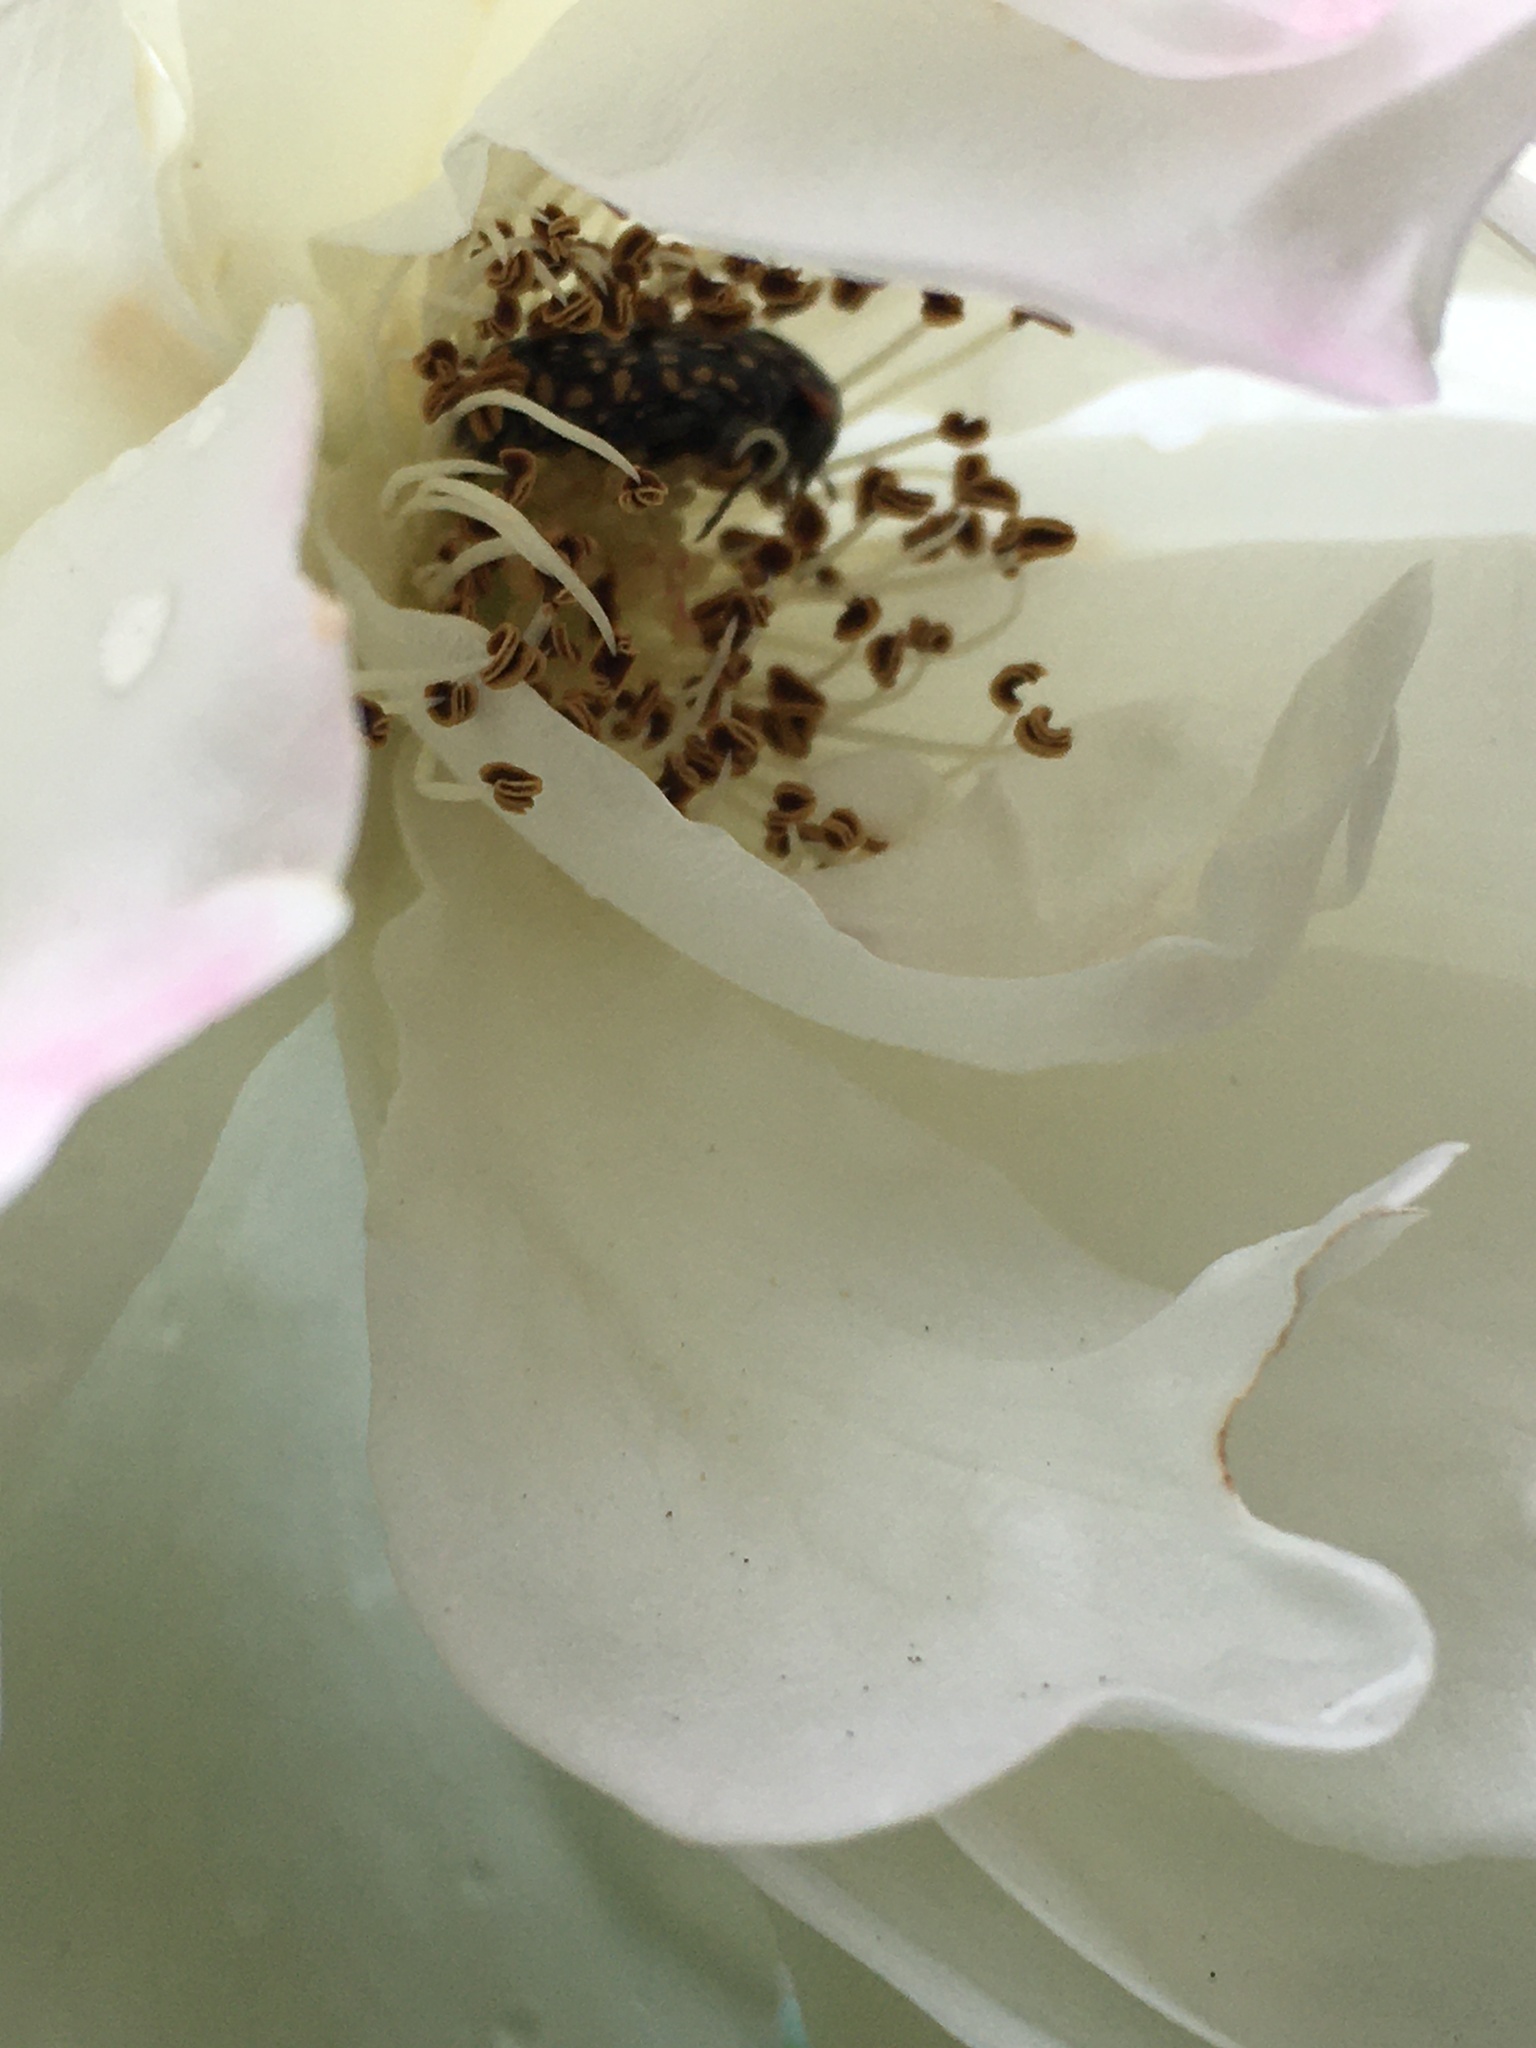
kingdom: Animalia
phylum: Arthropoda
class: Insecta
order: Coleoptera
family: Scarabaeidae
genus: Oxythyrea
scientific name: Oxythyrea
